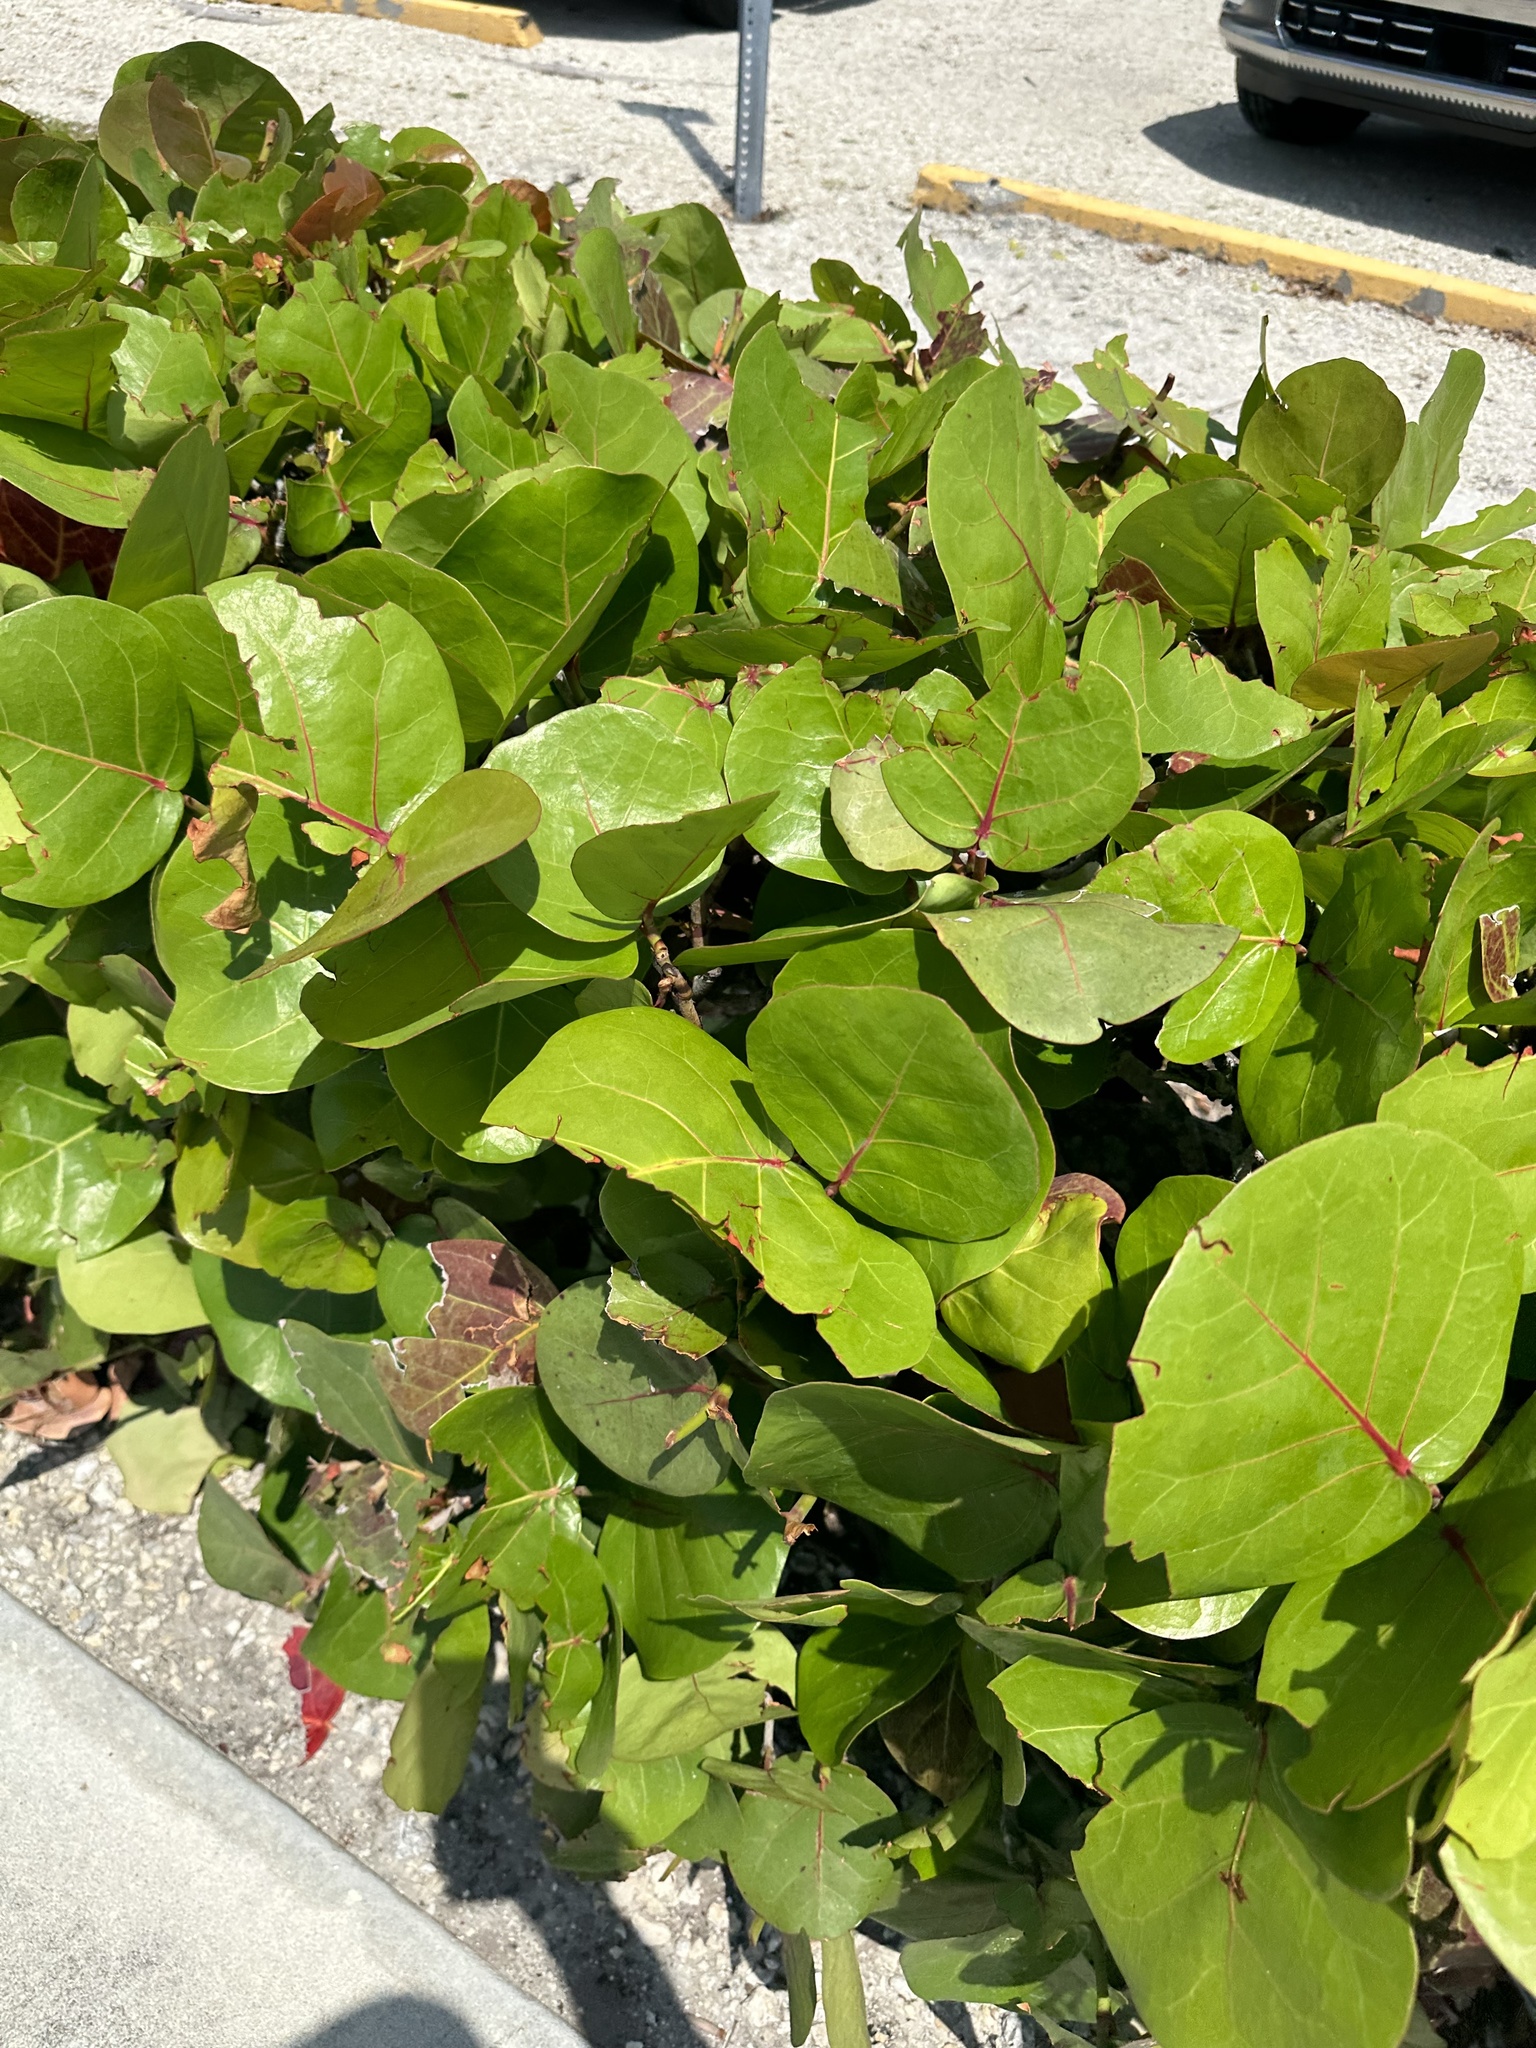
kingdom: Plantae
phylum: Tracheophyta
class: Magnoliopsida
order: Caryophyllales
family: Polygonaceae
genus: Coccoloba
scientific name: Coccoloba uvifera
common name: Seagrape
